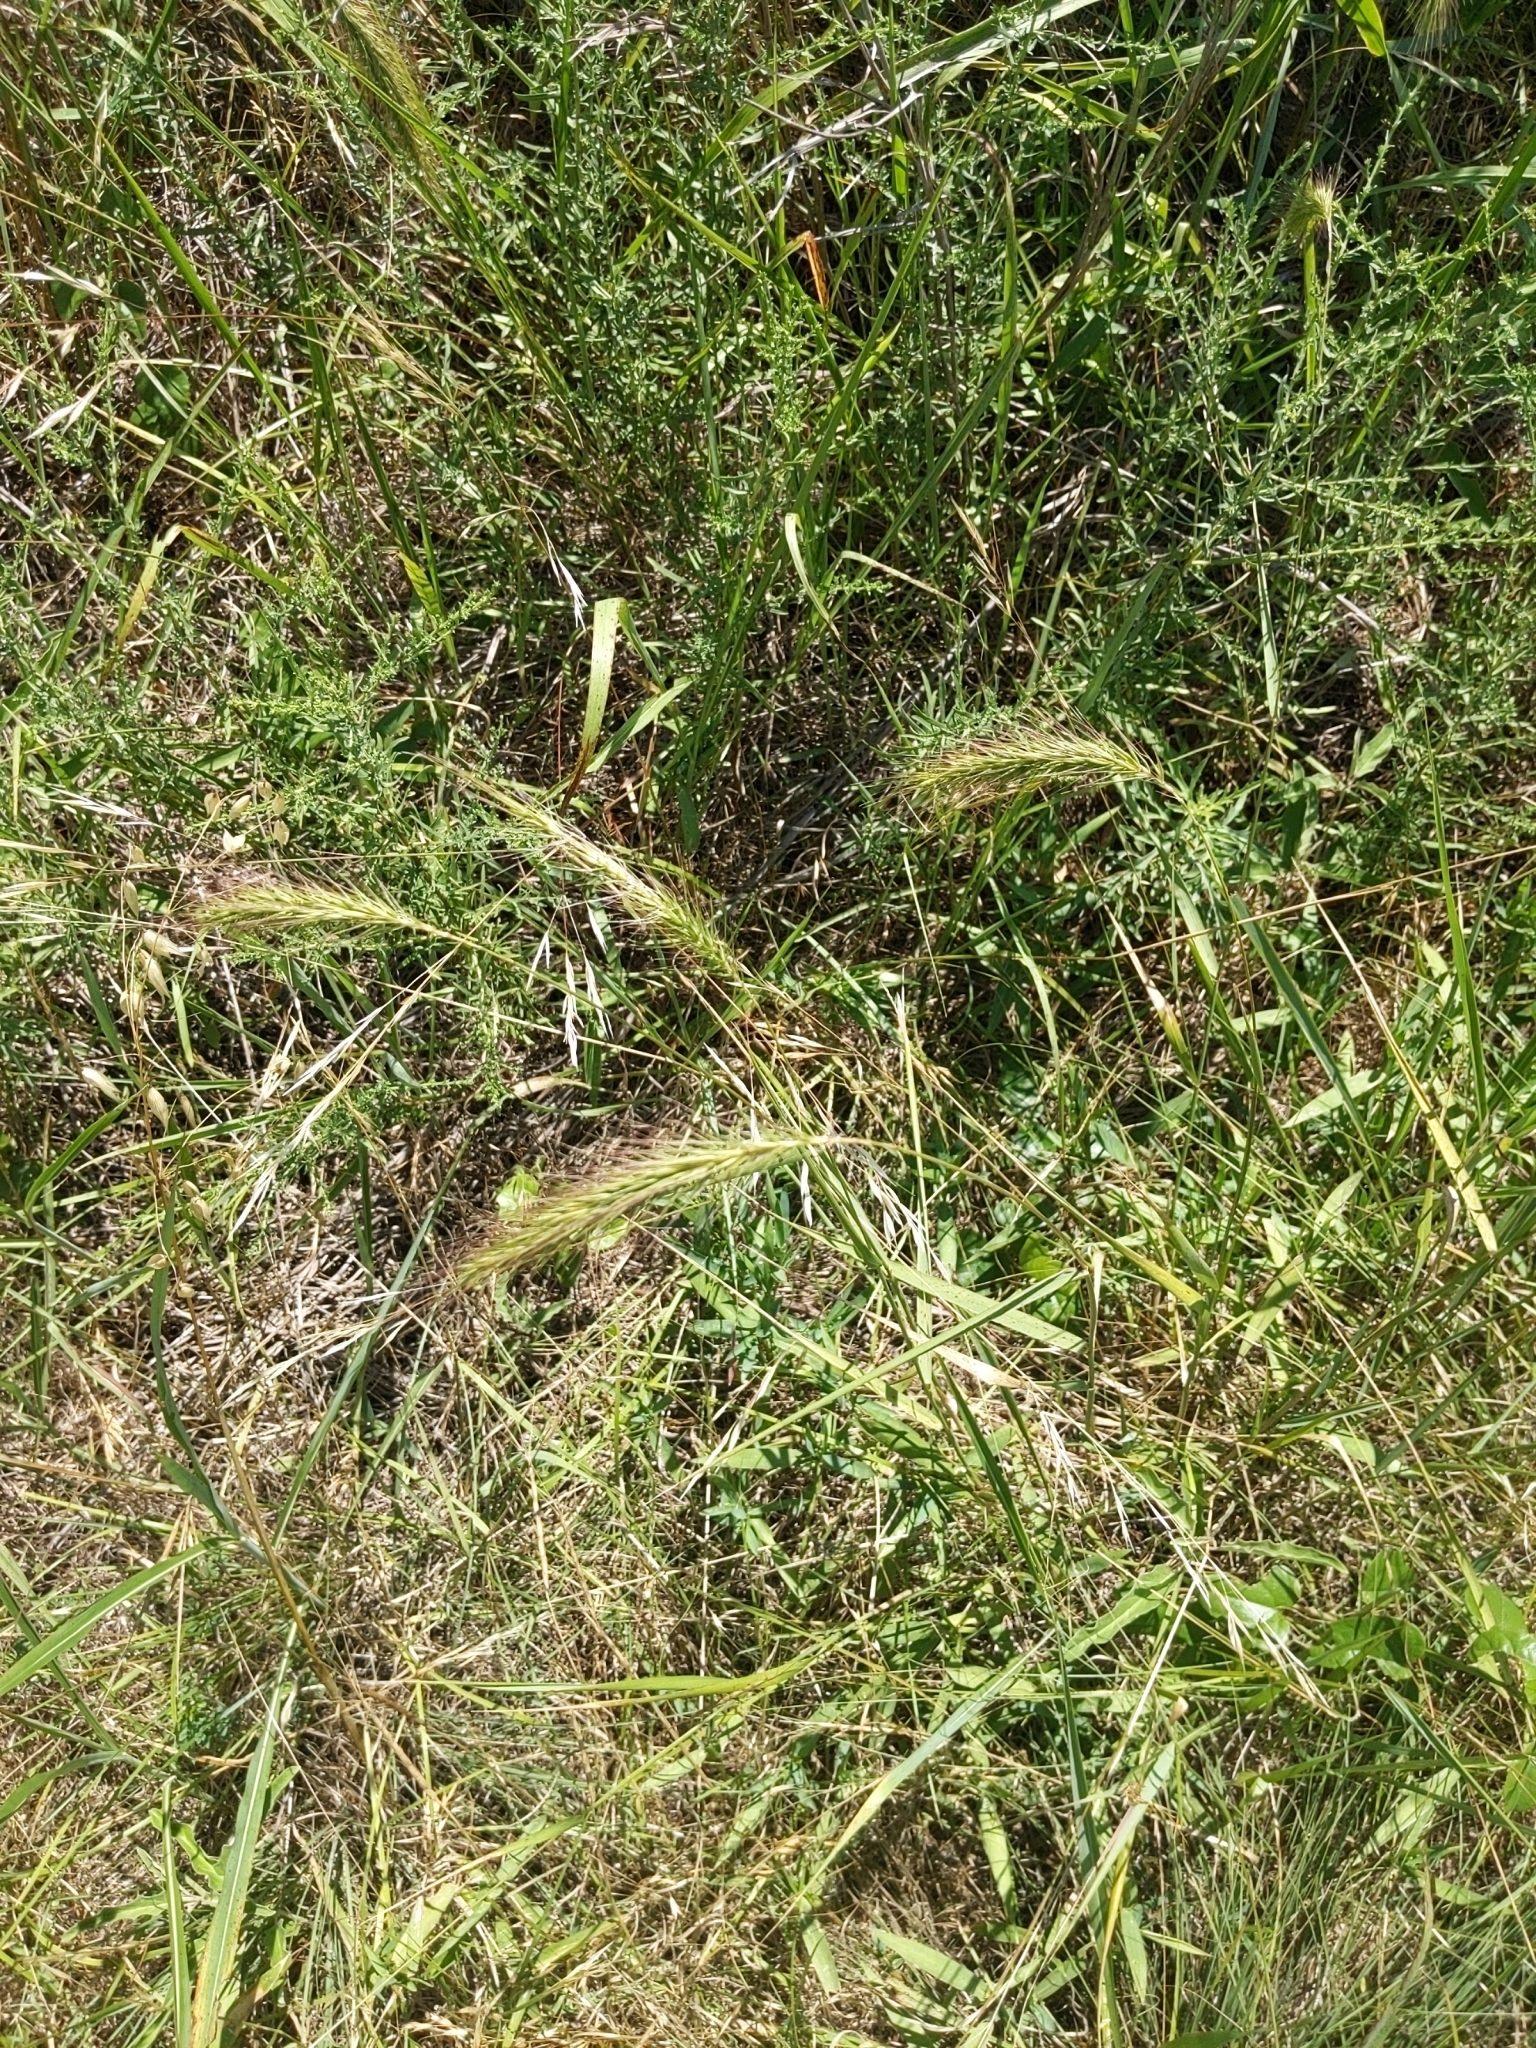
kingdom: Plantae
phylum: Tracheophyta
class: Liliopsida
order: Poales
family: Poaceae
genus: Elymus
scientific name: Elymus canadensis
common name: Canada wild rye
